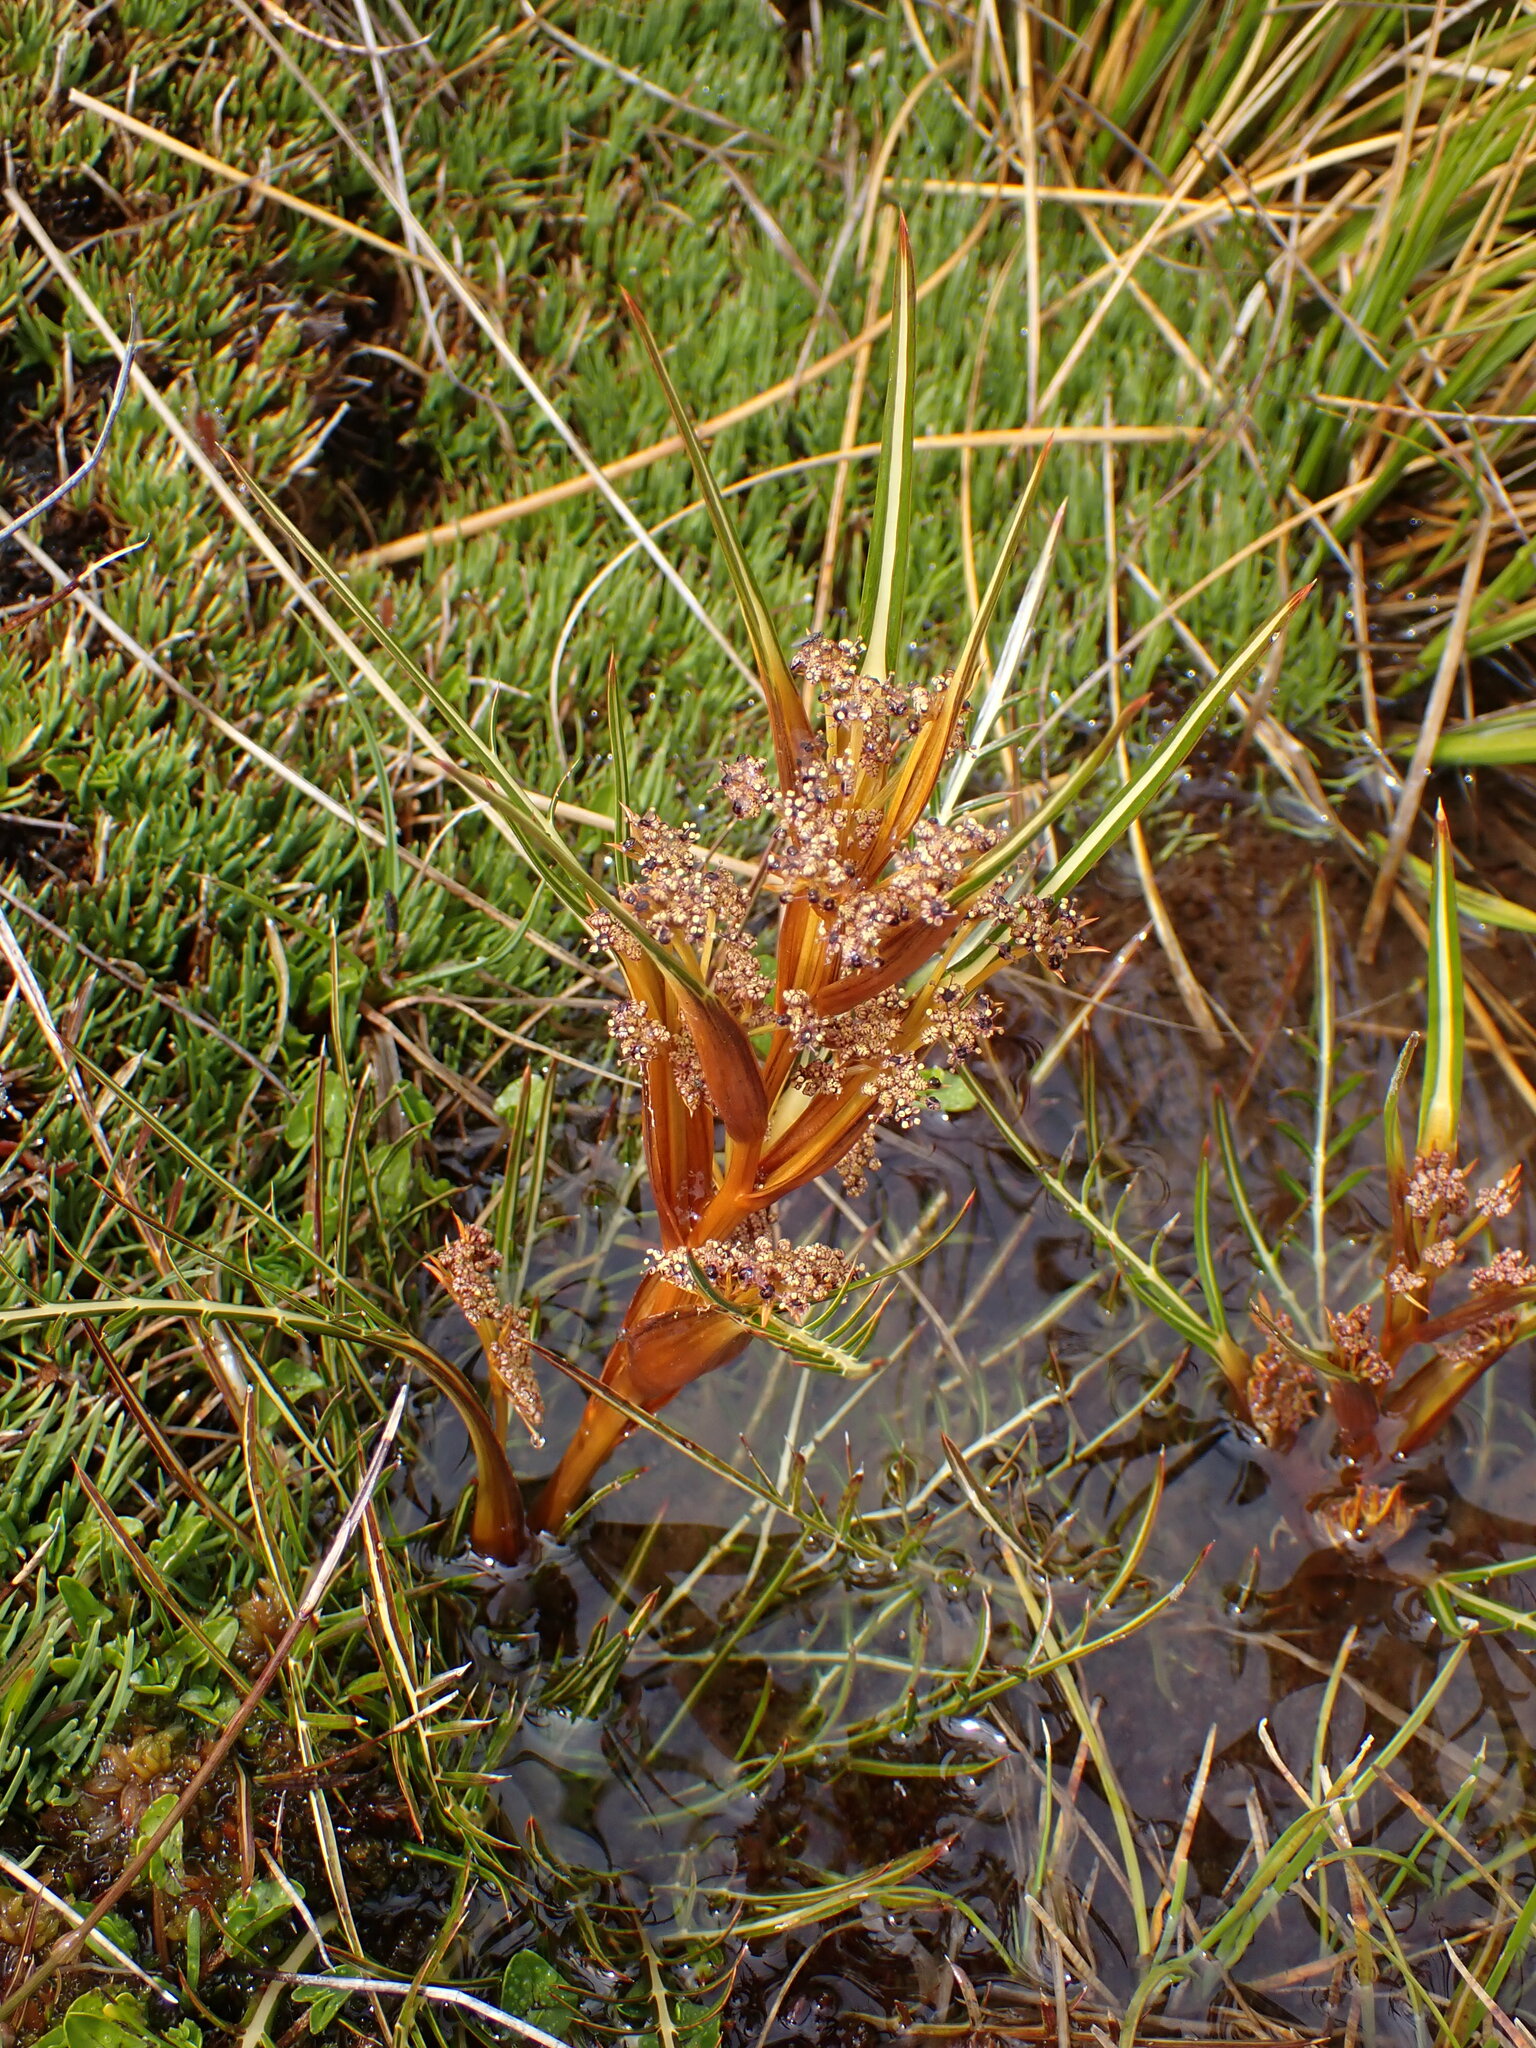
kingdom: Plantae
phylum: Tracheophyta
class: Magnoliopsida
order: Apiales
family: Apiaceae
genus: Aciphylla
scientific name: Aciphylla pinnatifida
